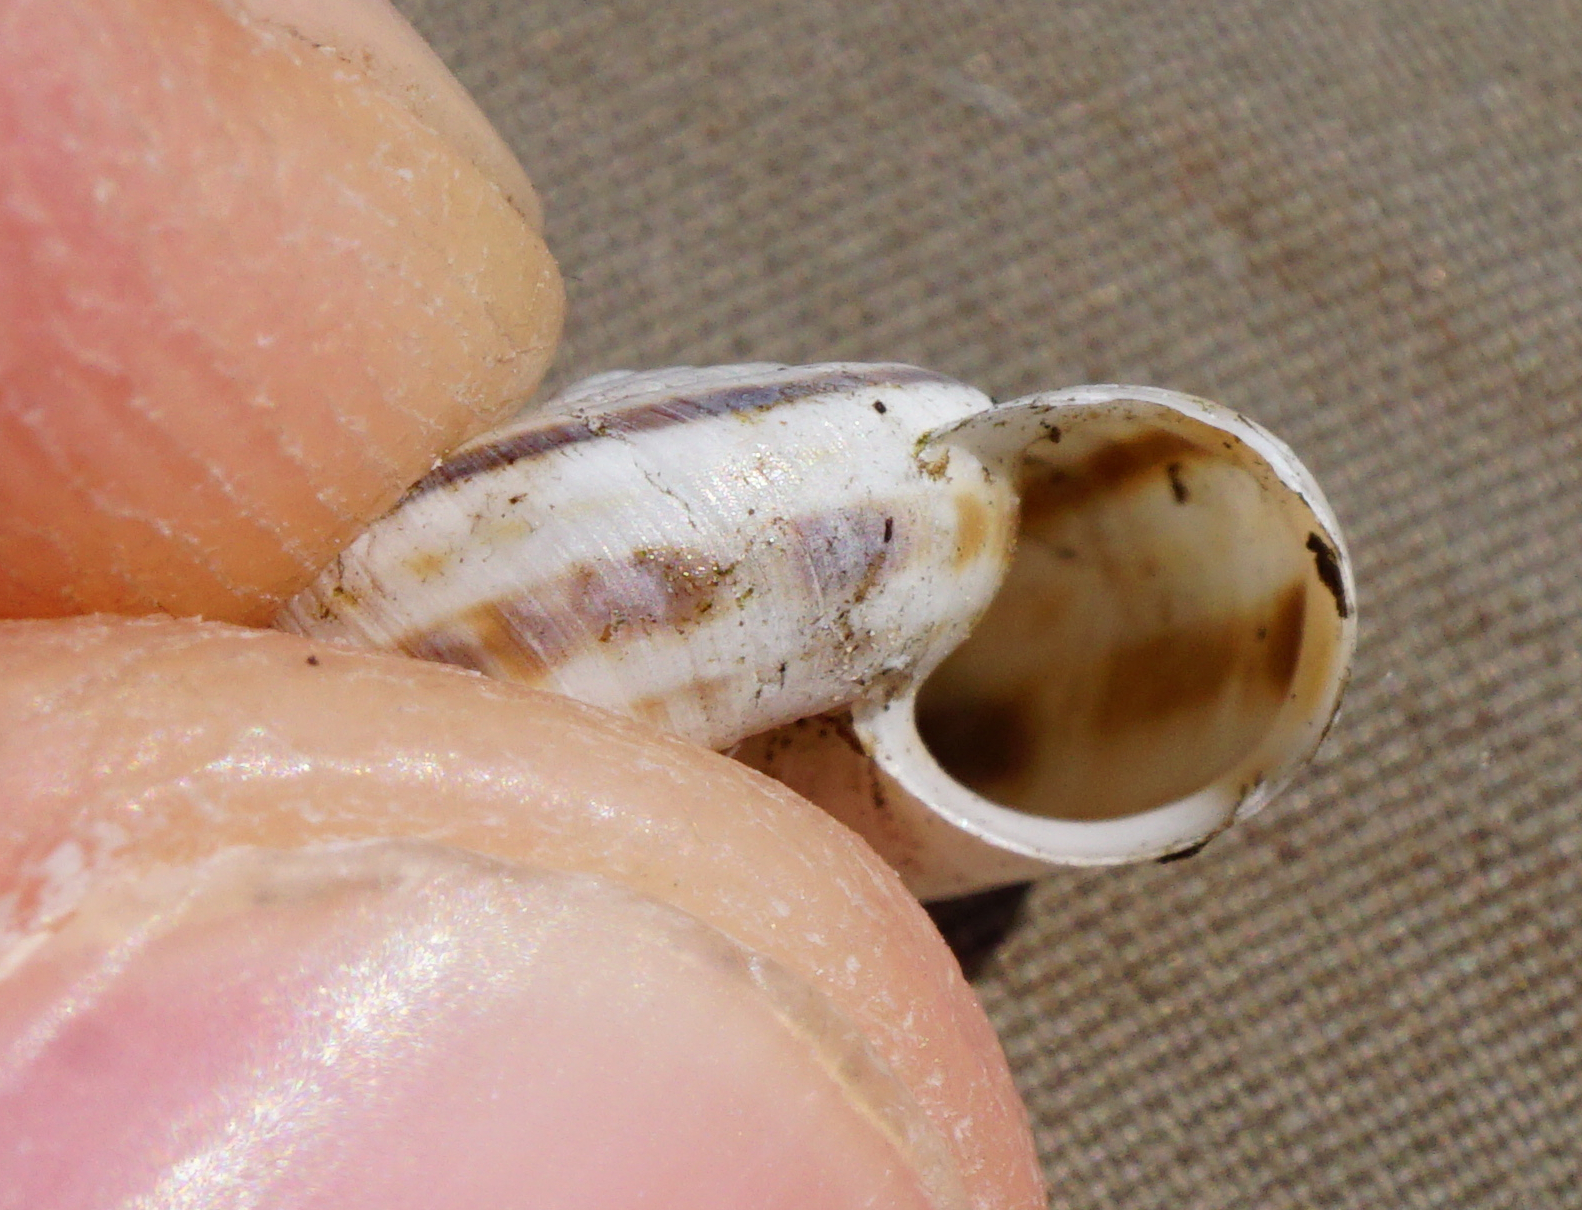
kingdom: Animalia
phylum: Mollusca
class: Gastropoda
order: Stylommatophora
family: Geomitridae
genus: Xerolenta
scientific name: Xerolenta obvia
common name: White heath snail
